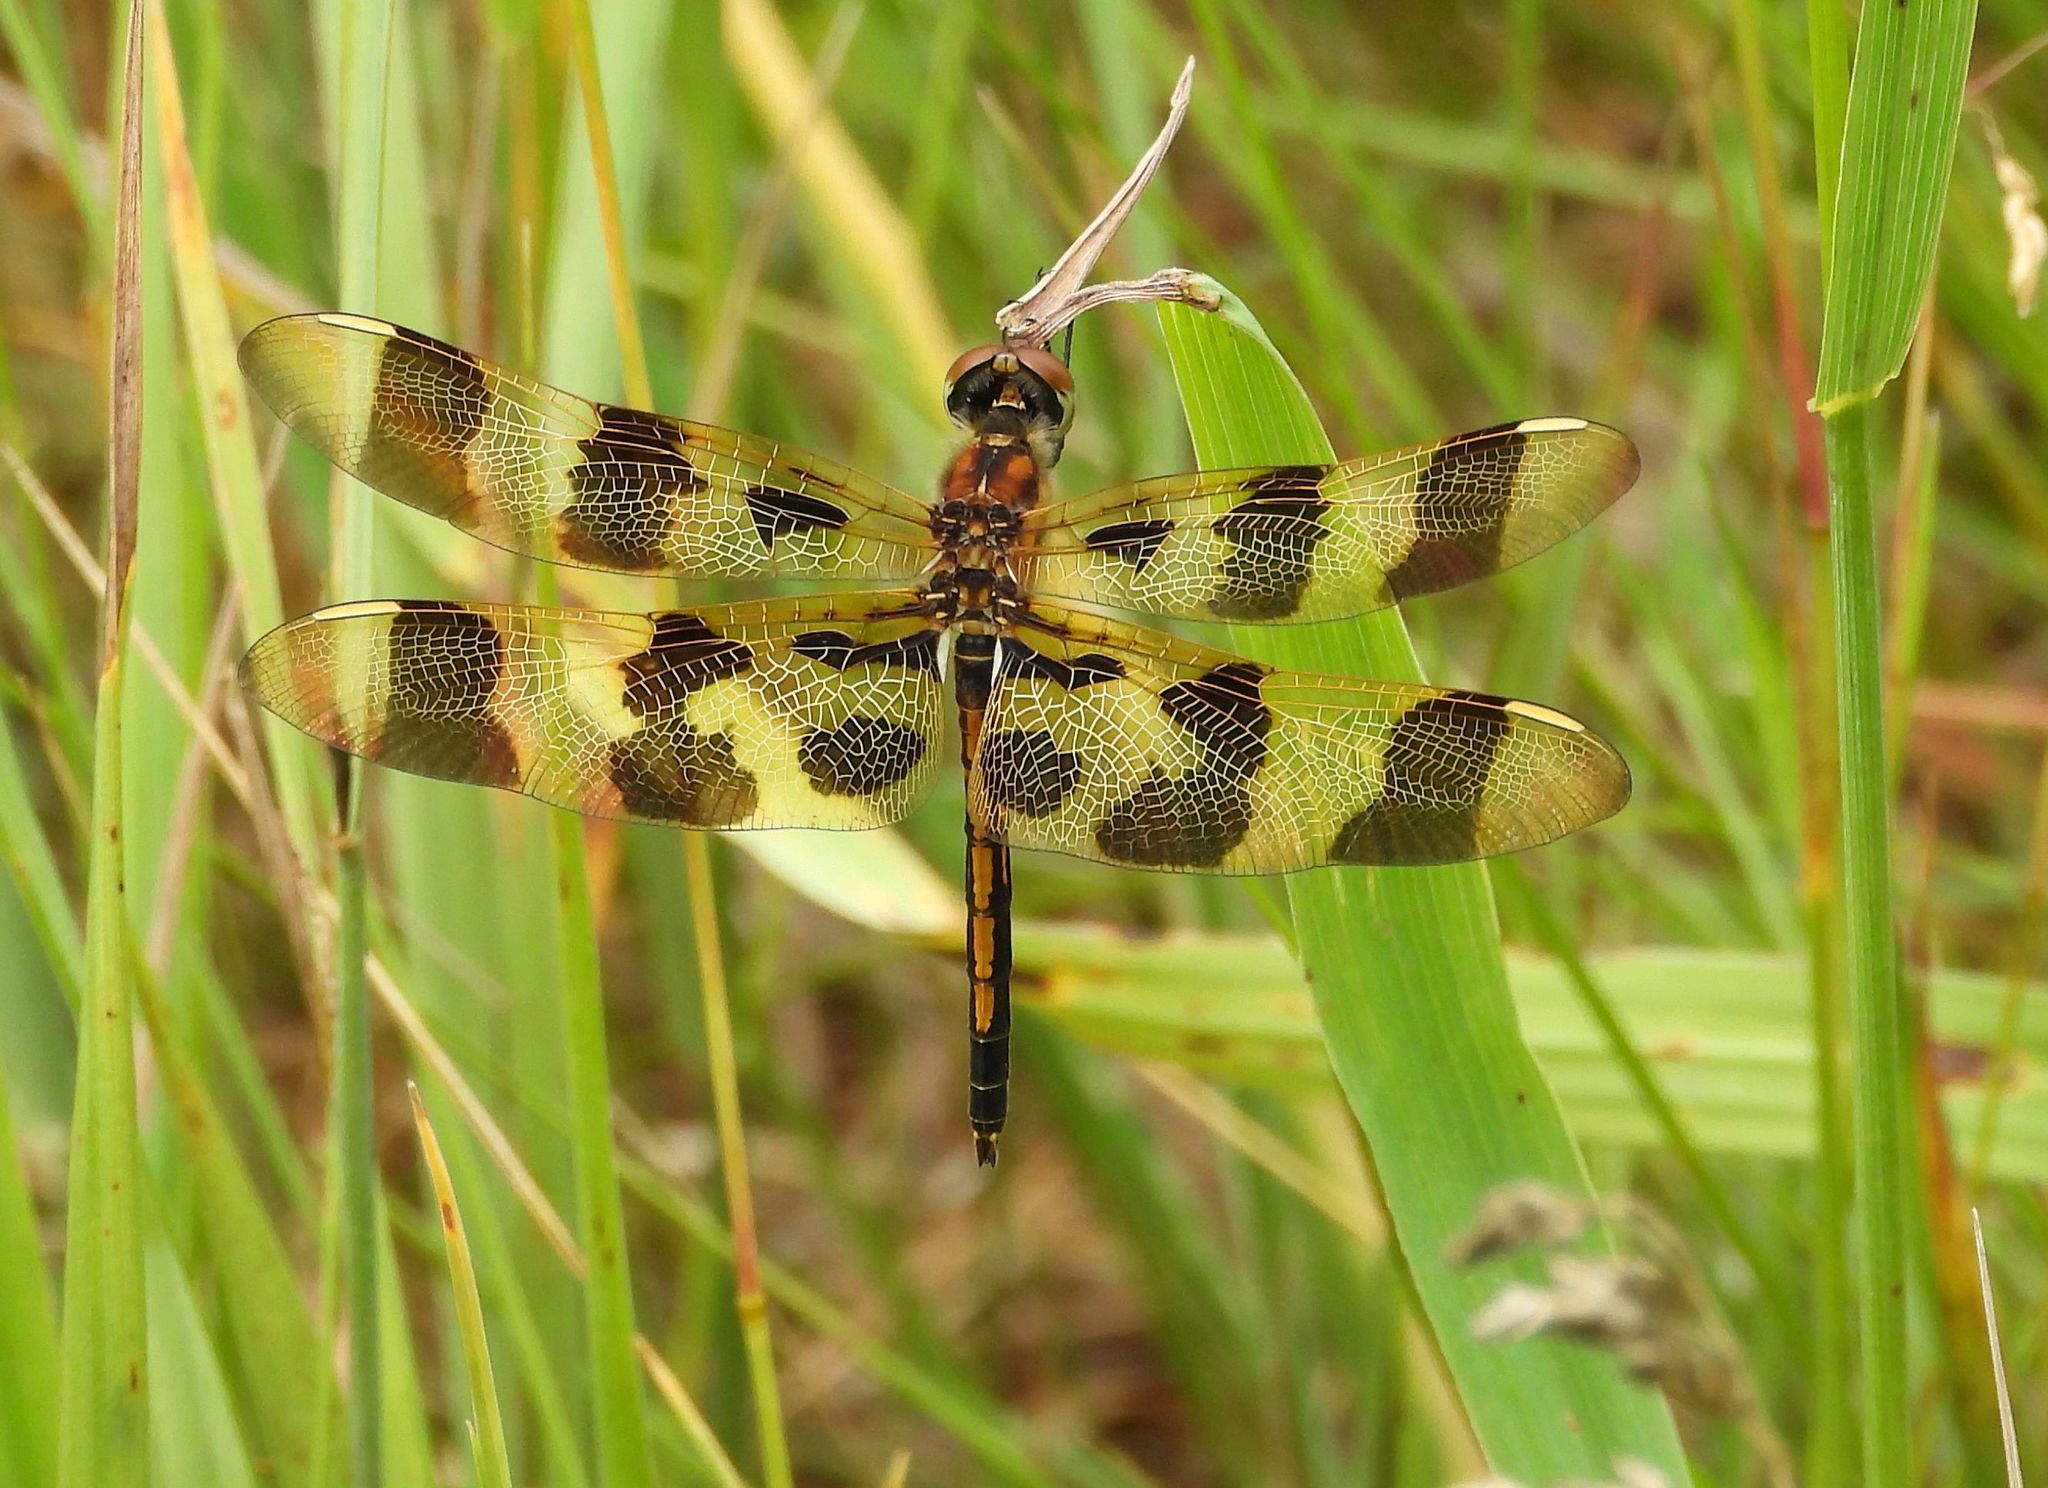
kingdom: Animalia
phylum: Arthropoda
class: Insecta
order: Odonata
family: Libellulidae
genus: Celithemis
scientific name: Celithemis eponina
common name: Halloween pennant
